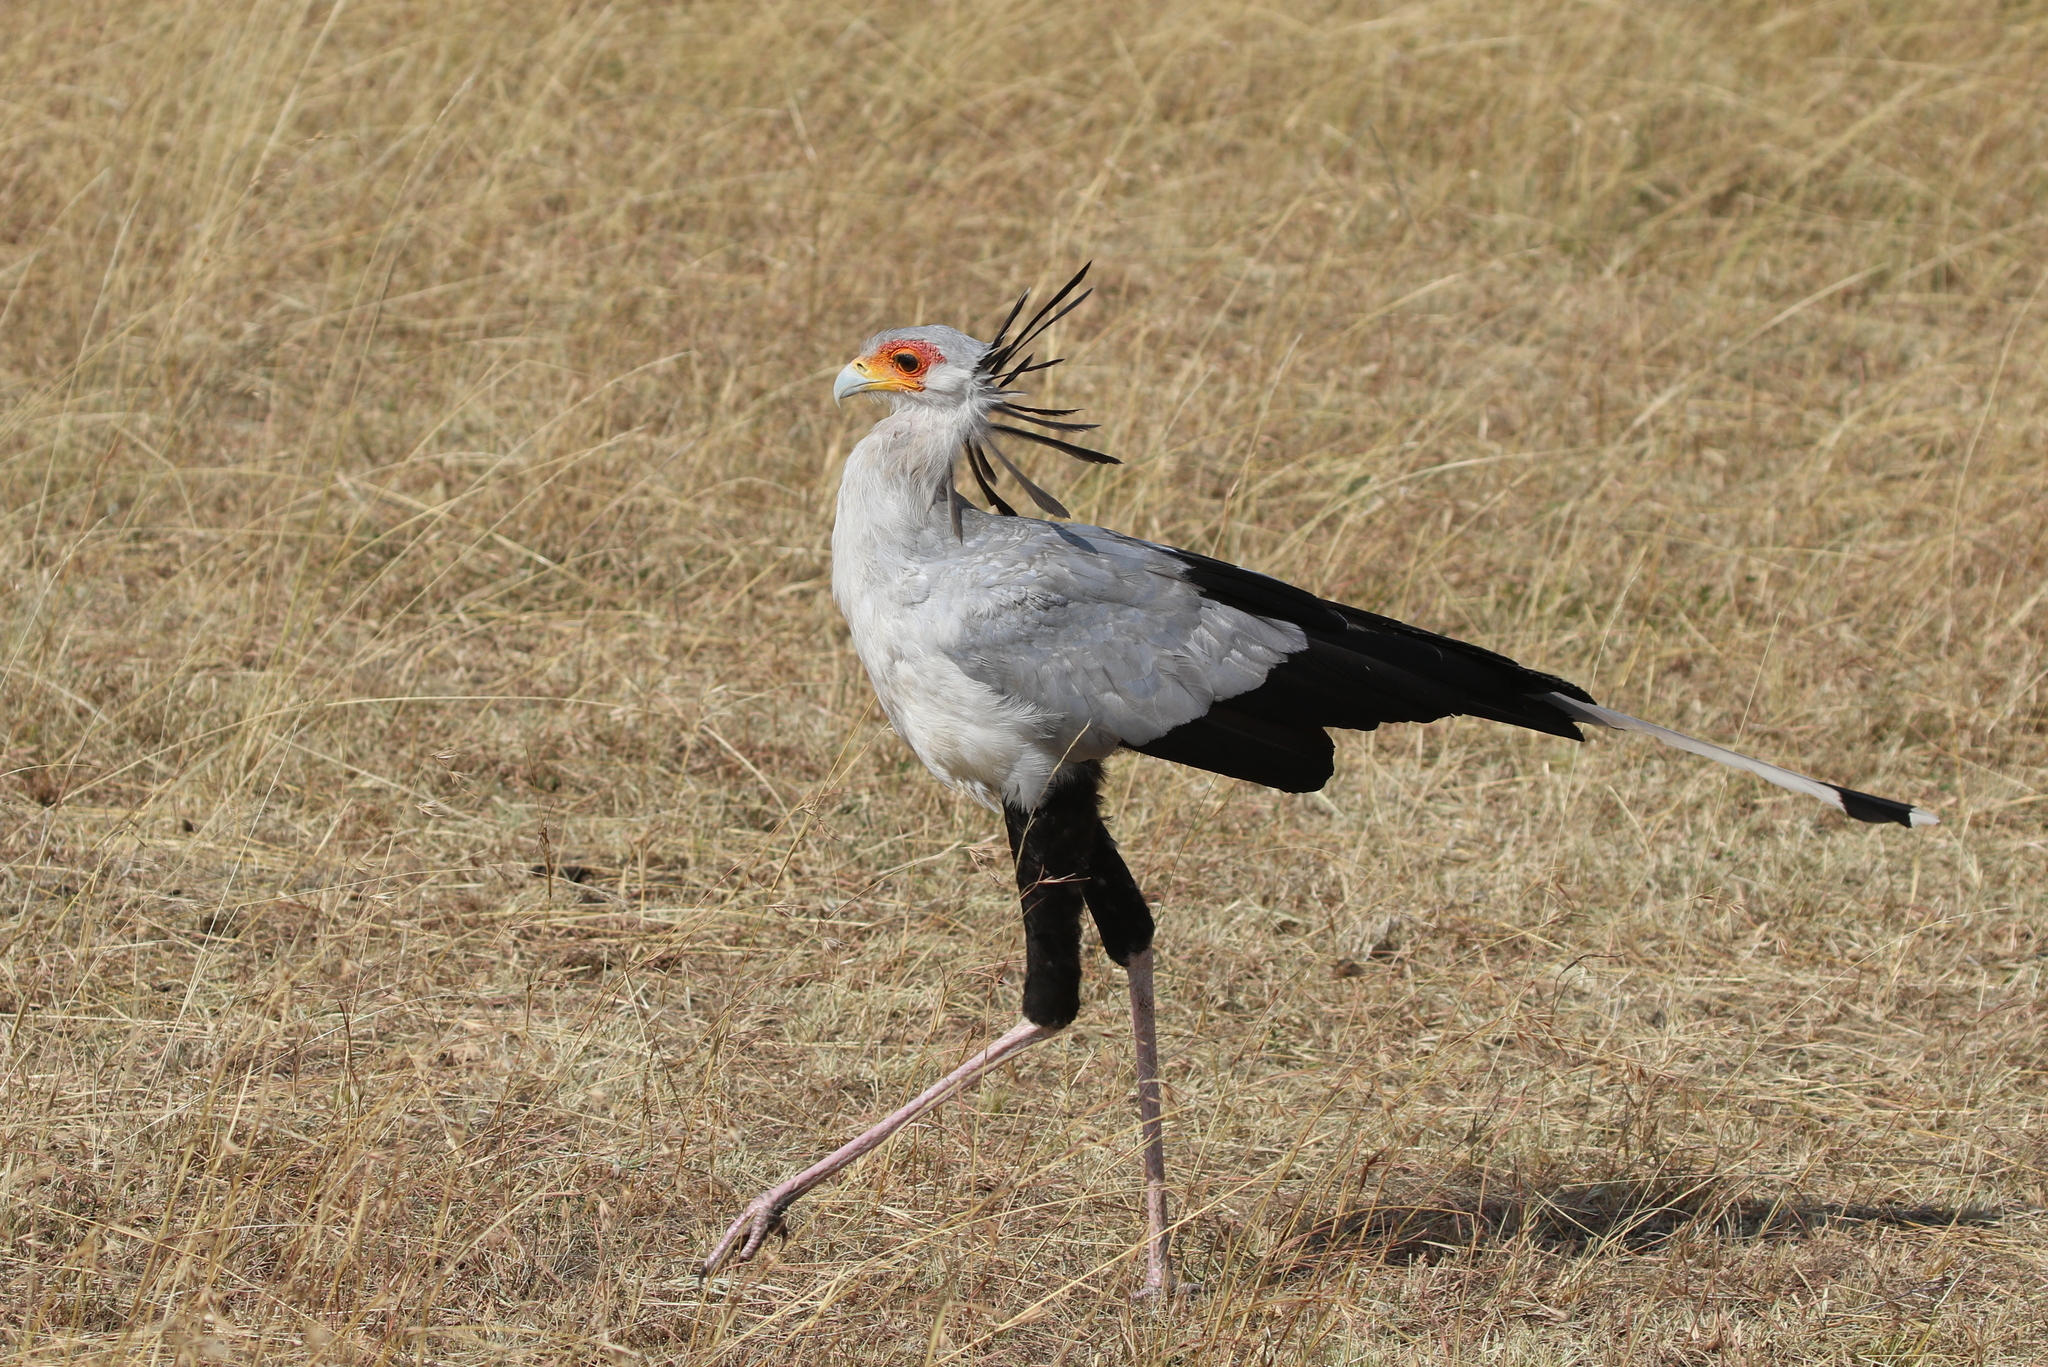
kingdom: Animalia
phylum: Chordata
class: Aves
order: Accipitriformes
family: Sagittariidae
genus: Sagittarius
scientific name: Sagittarius serpentarius
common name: Secretarybird
